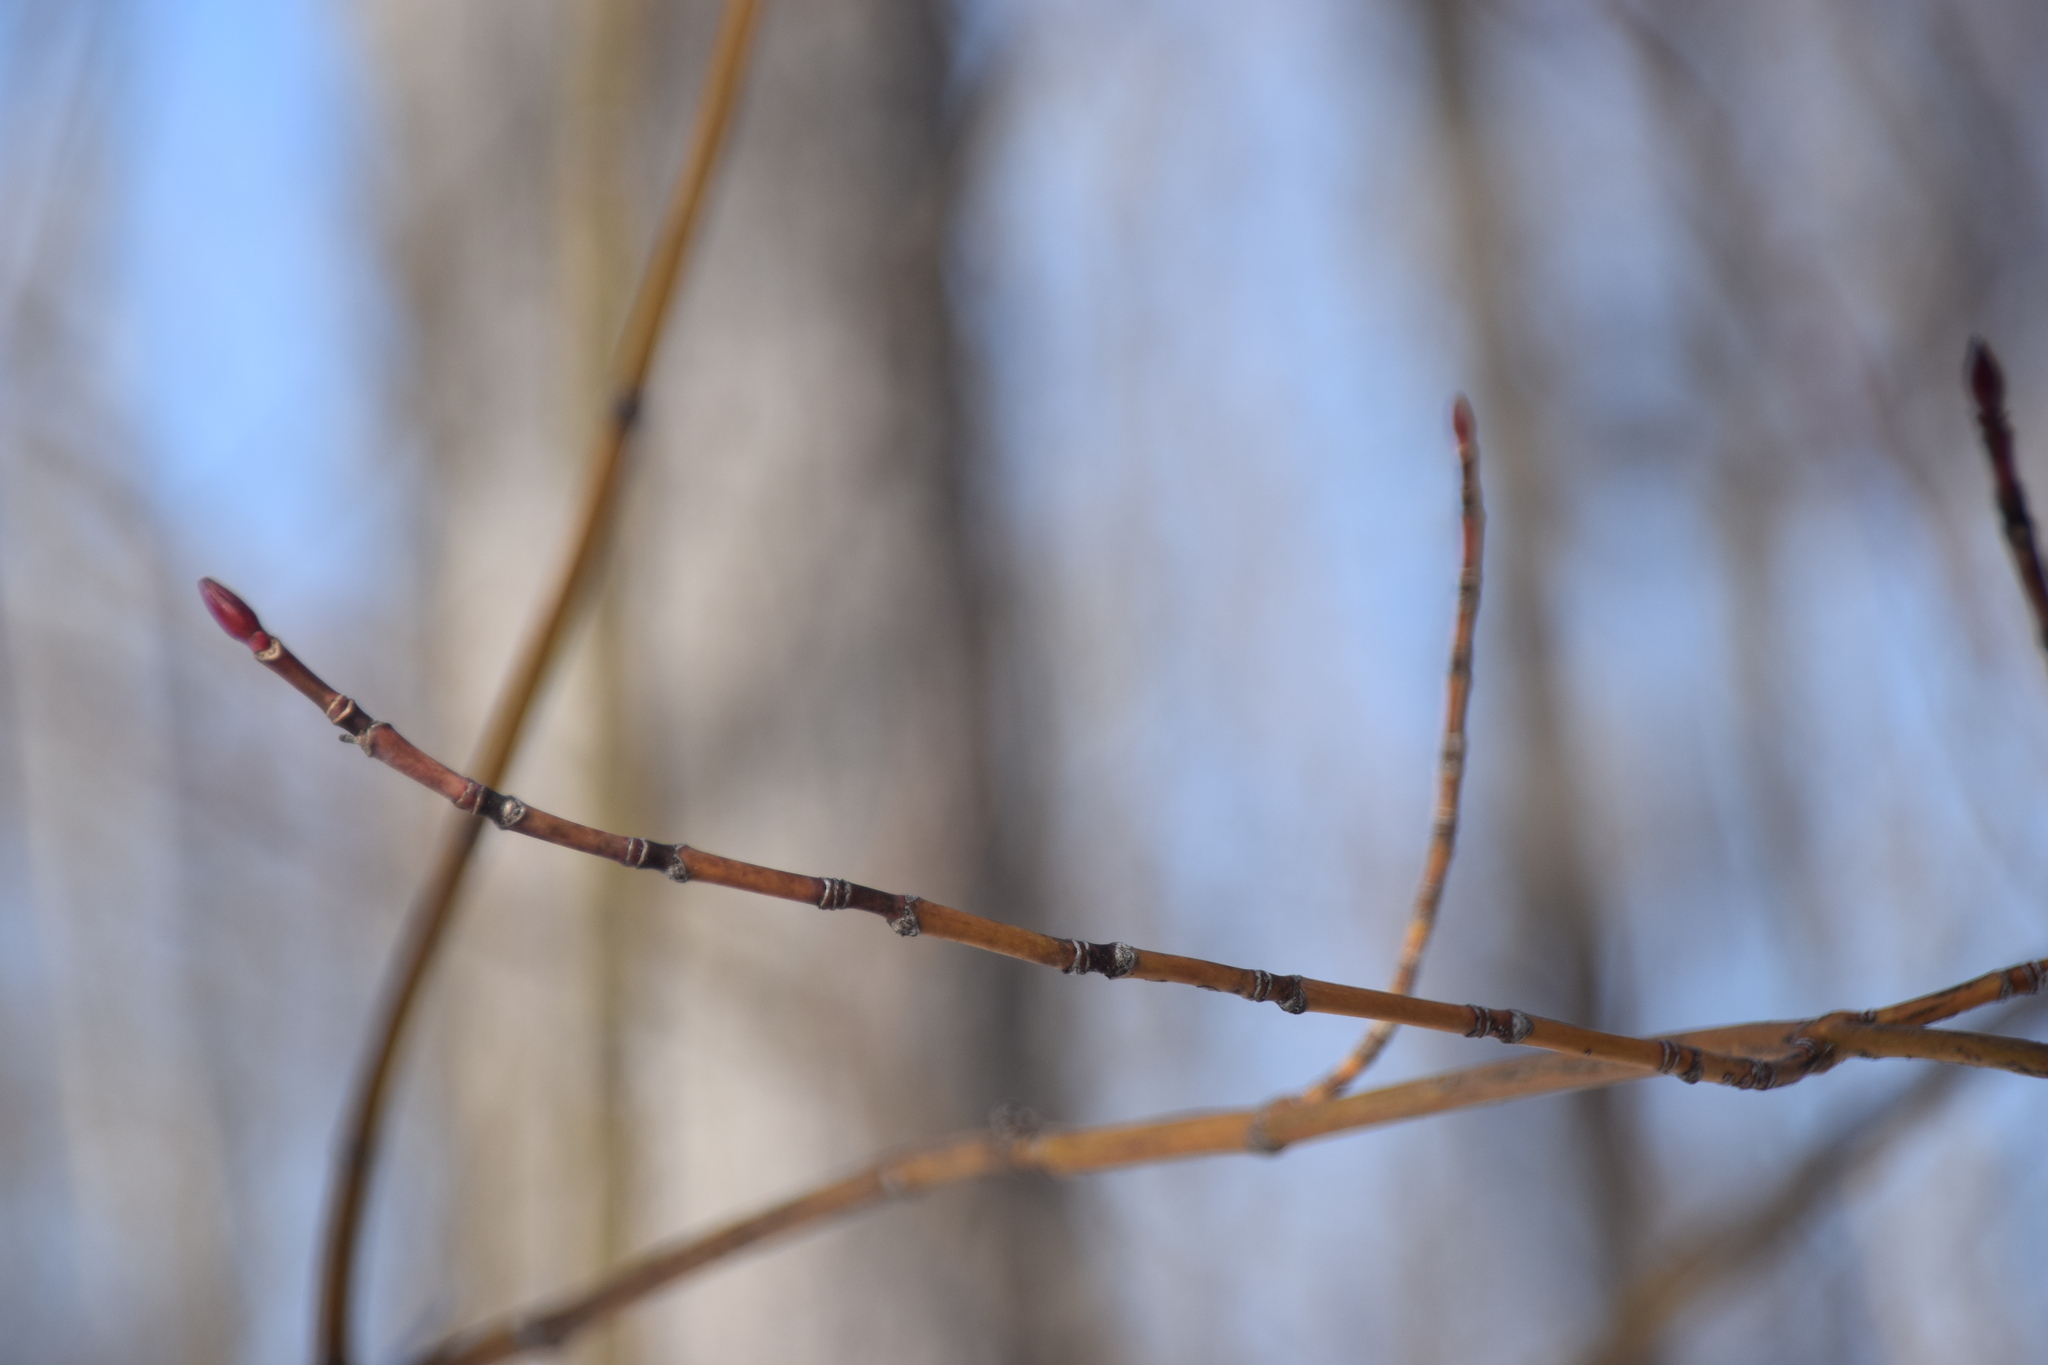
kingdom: Plantae
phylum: Tracheophyta
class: Magnoliopsida
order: Sapindales
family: Sapindaceae
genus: Acer
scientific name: Acer pensylvanicum
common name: Moosewood
